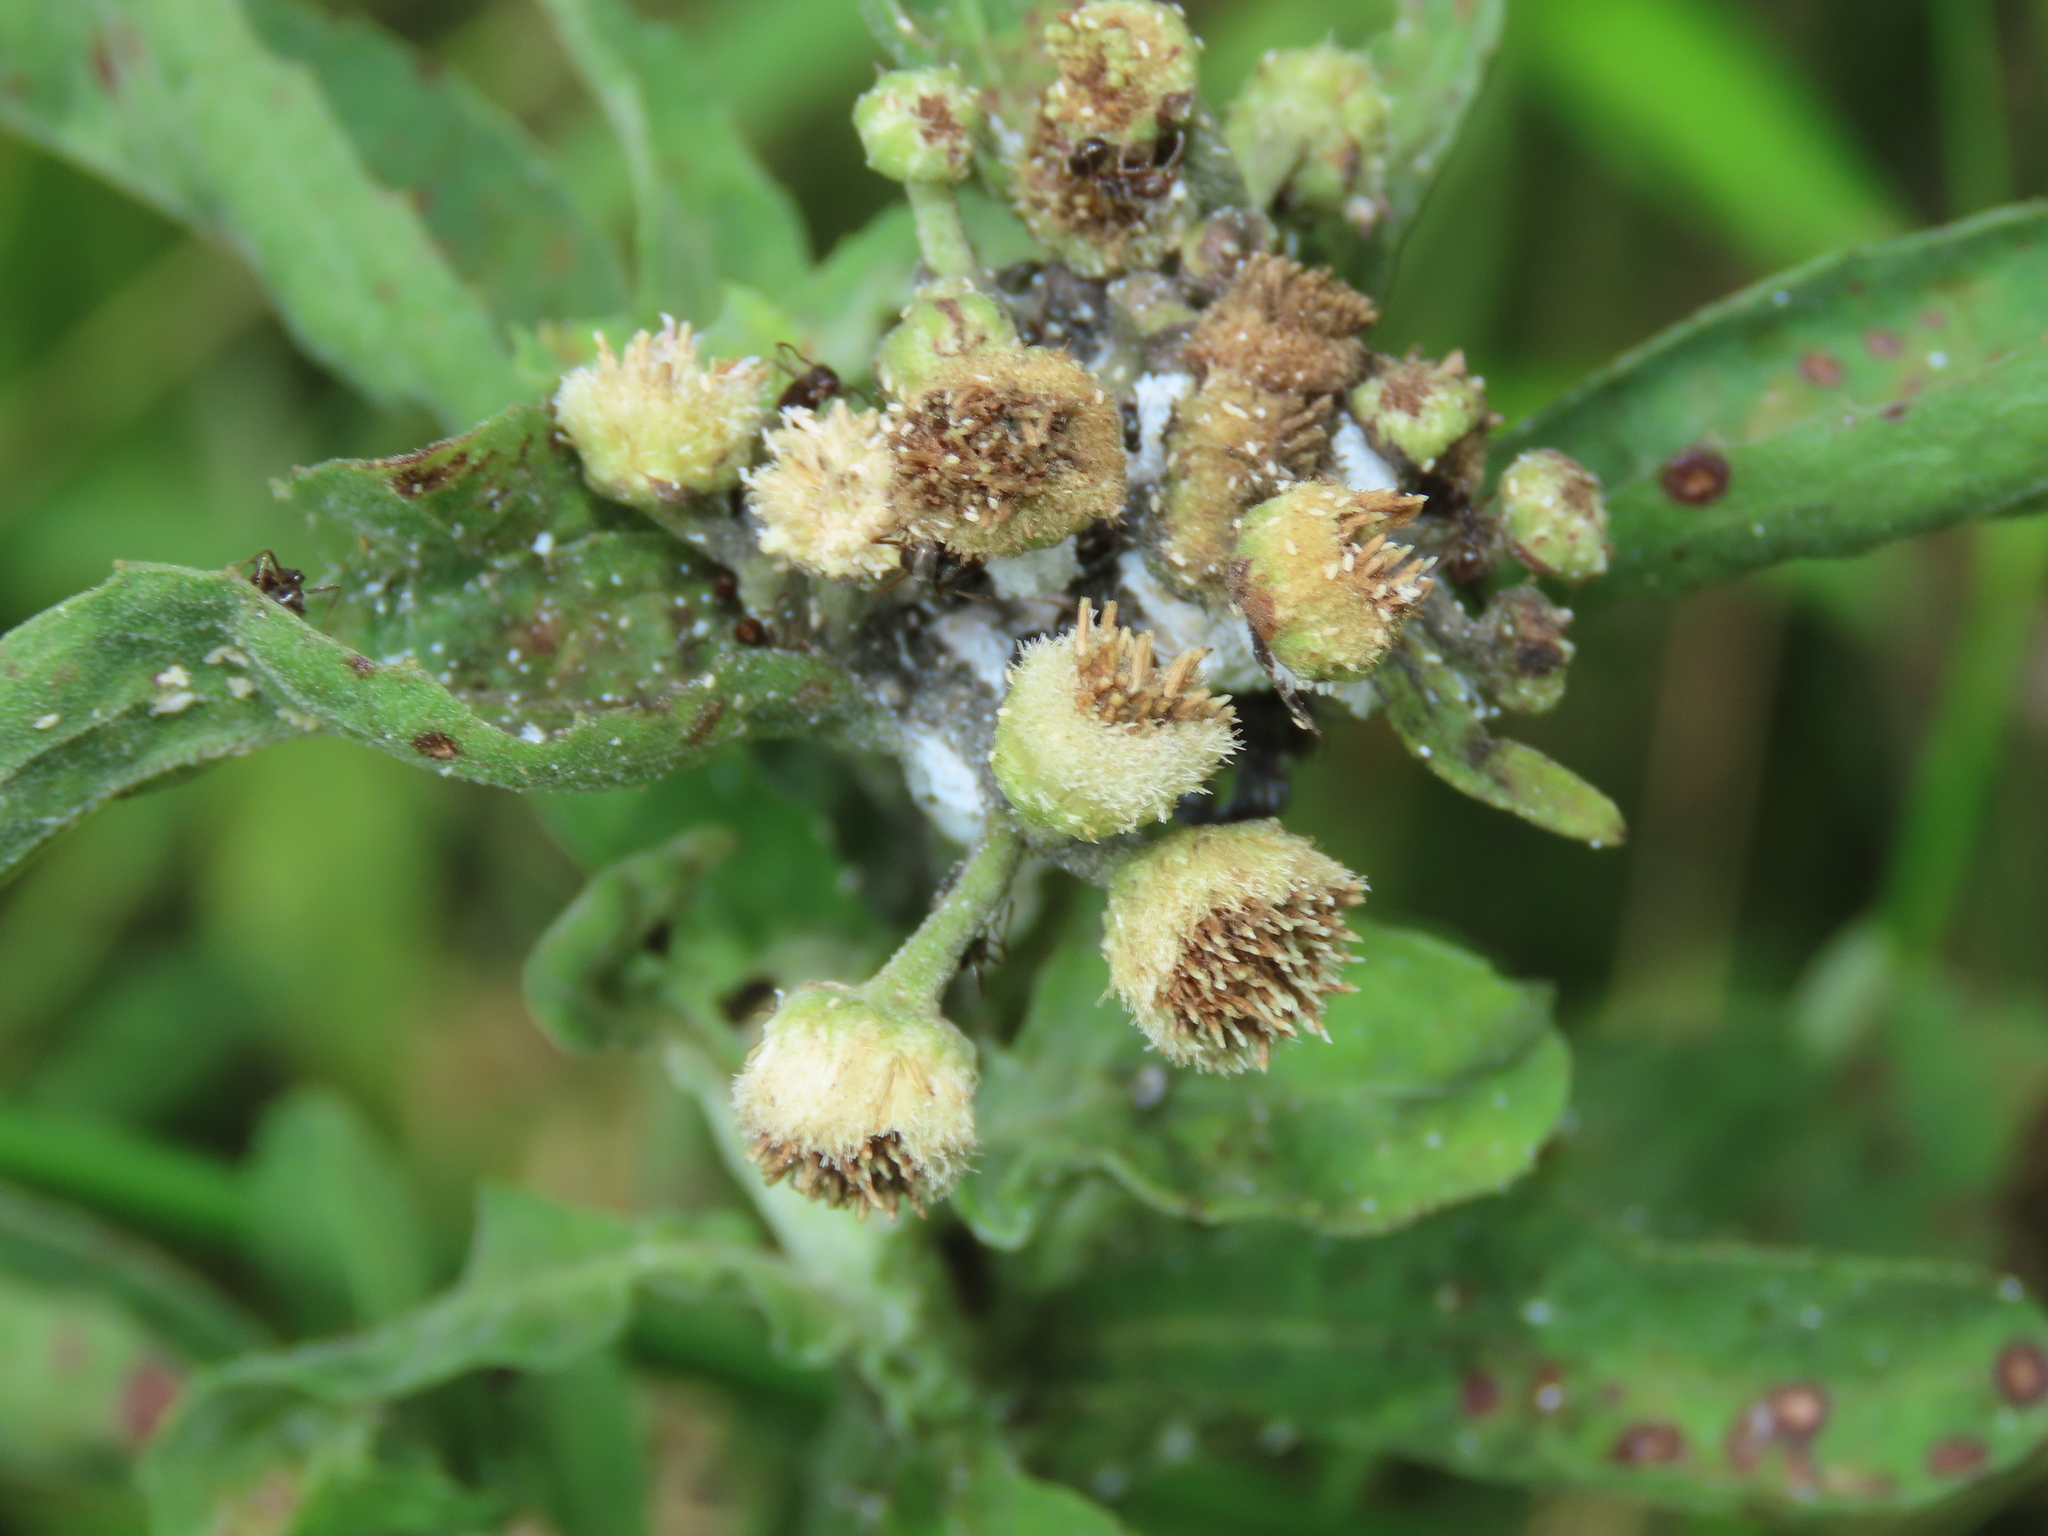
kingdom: Plantae
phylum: Tracheophyta
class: Magnoliopsida
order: Asterales
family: Asteraceae
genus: Pluchea
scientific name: Pluchea sagittalis
